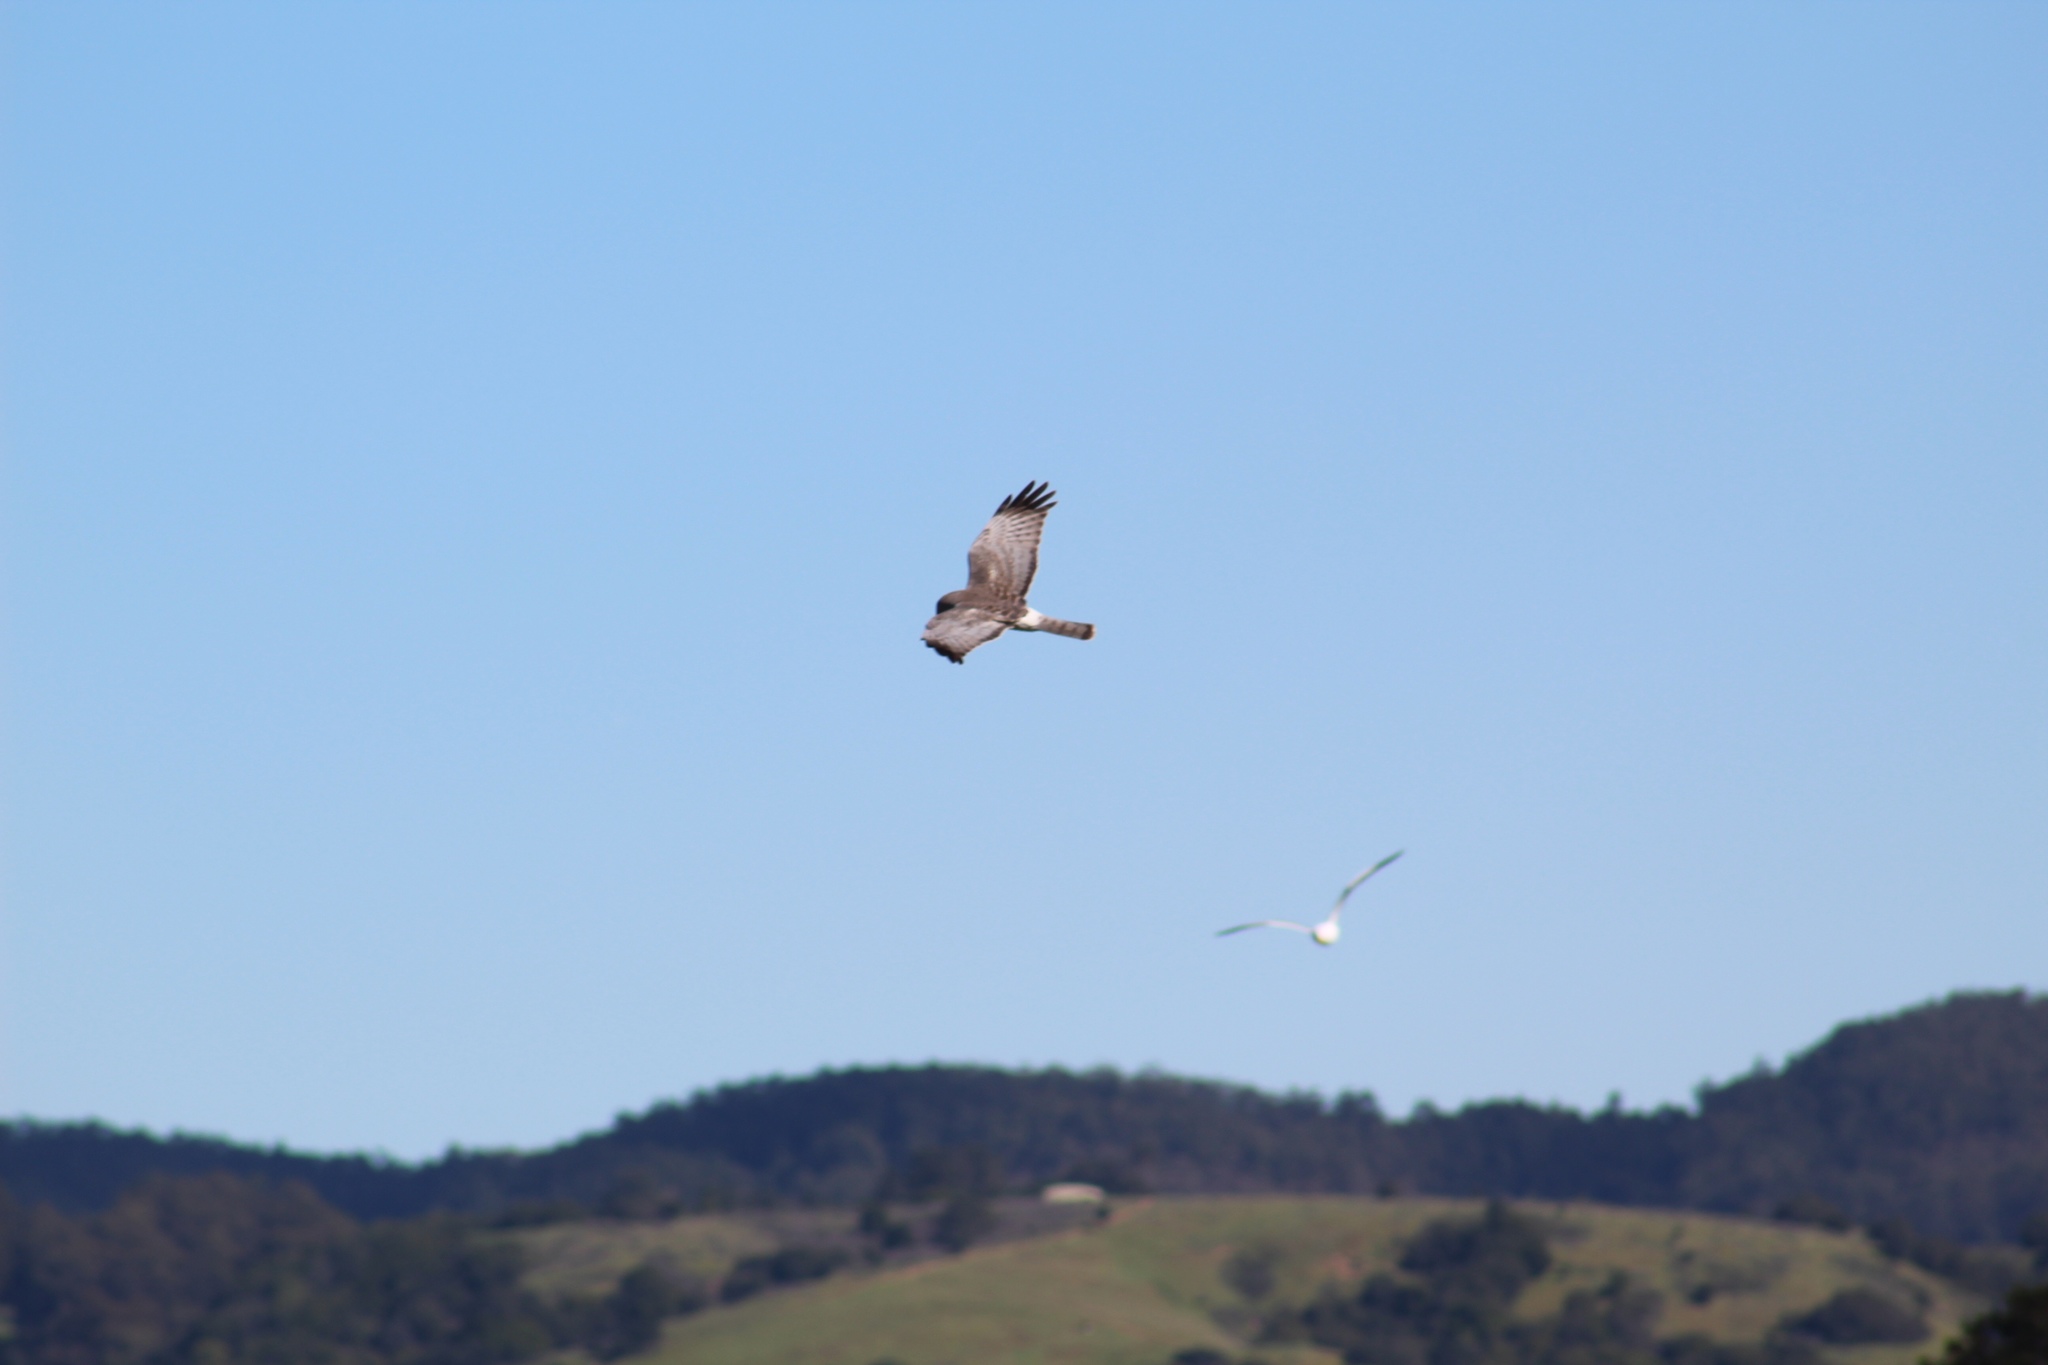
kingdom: Animalia
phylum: Chordata
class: Aves
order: Accipitriformes
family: Accipitridae
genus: Circus
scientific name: Circus cyaneus
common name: Hen harrier
